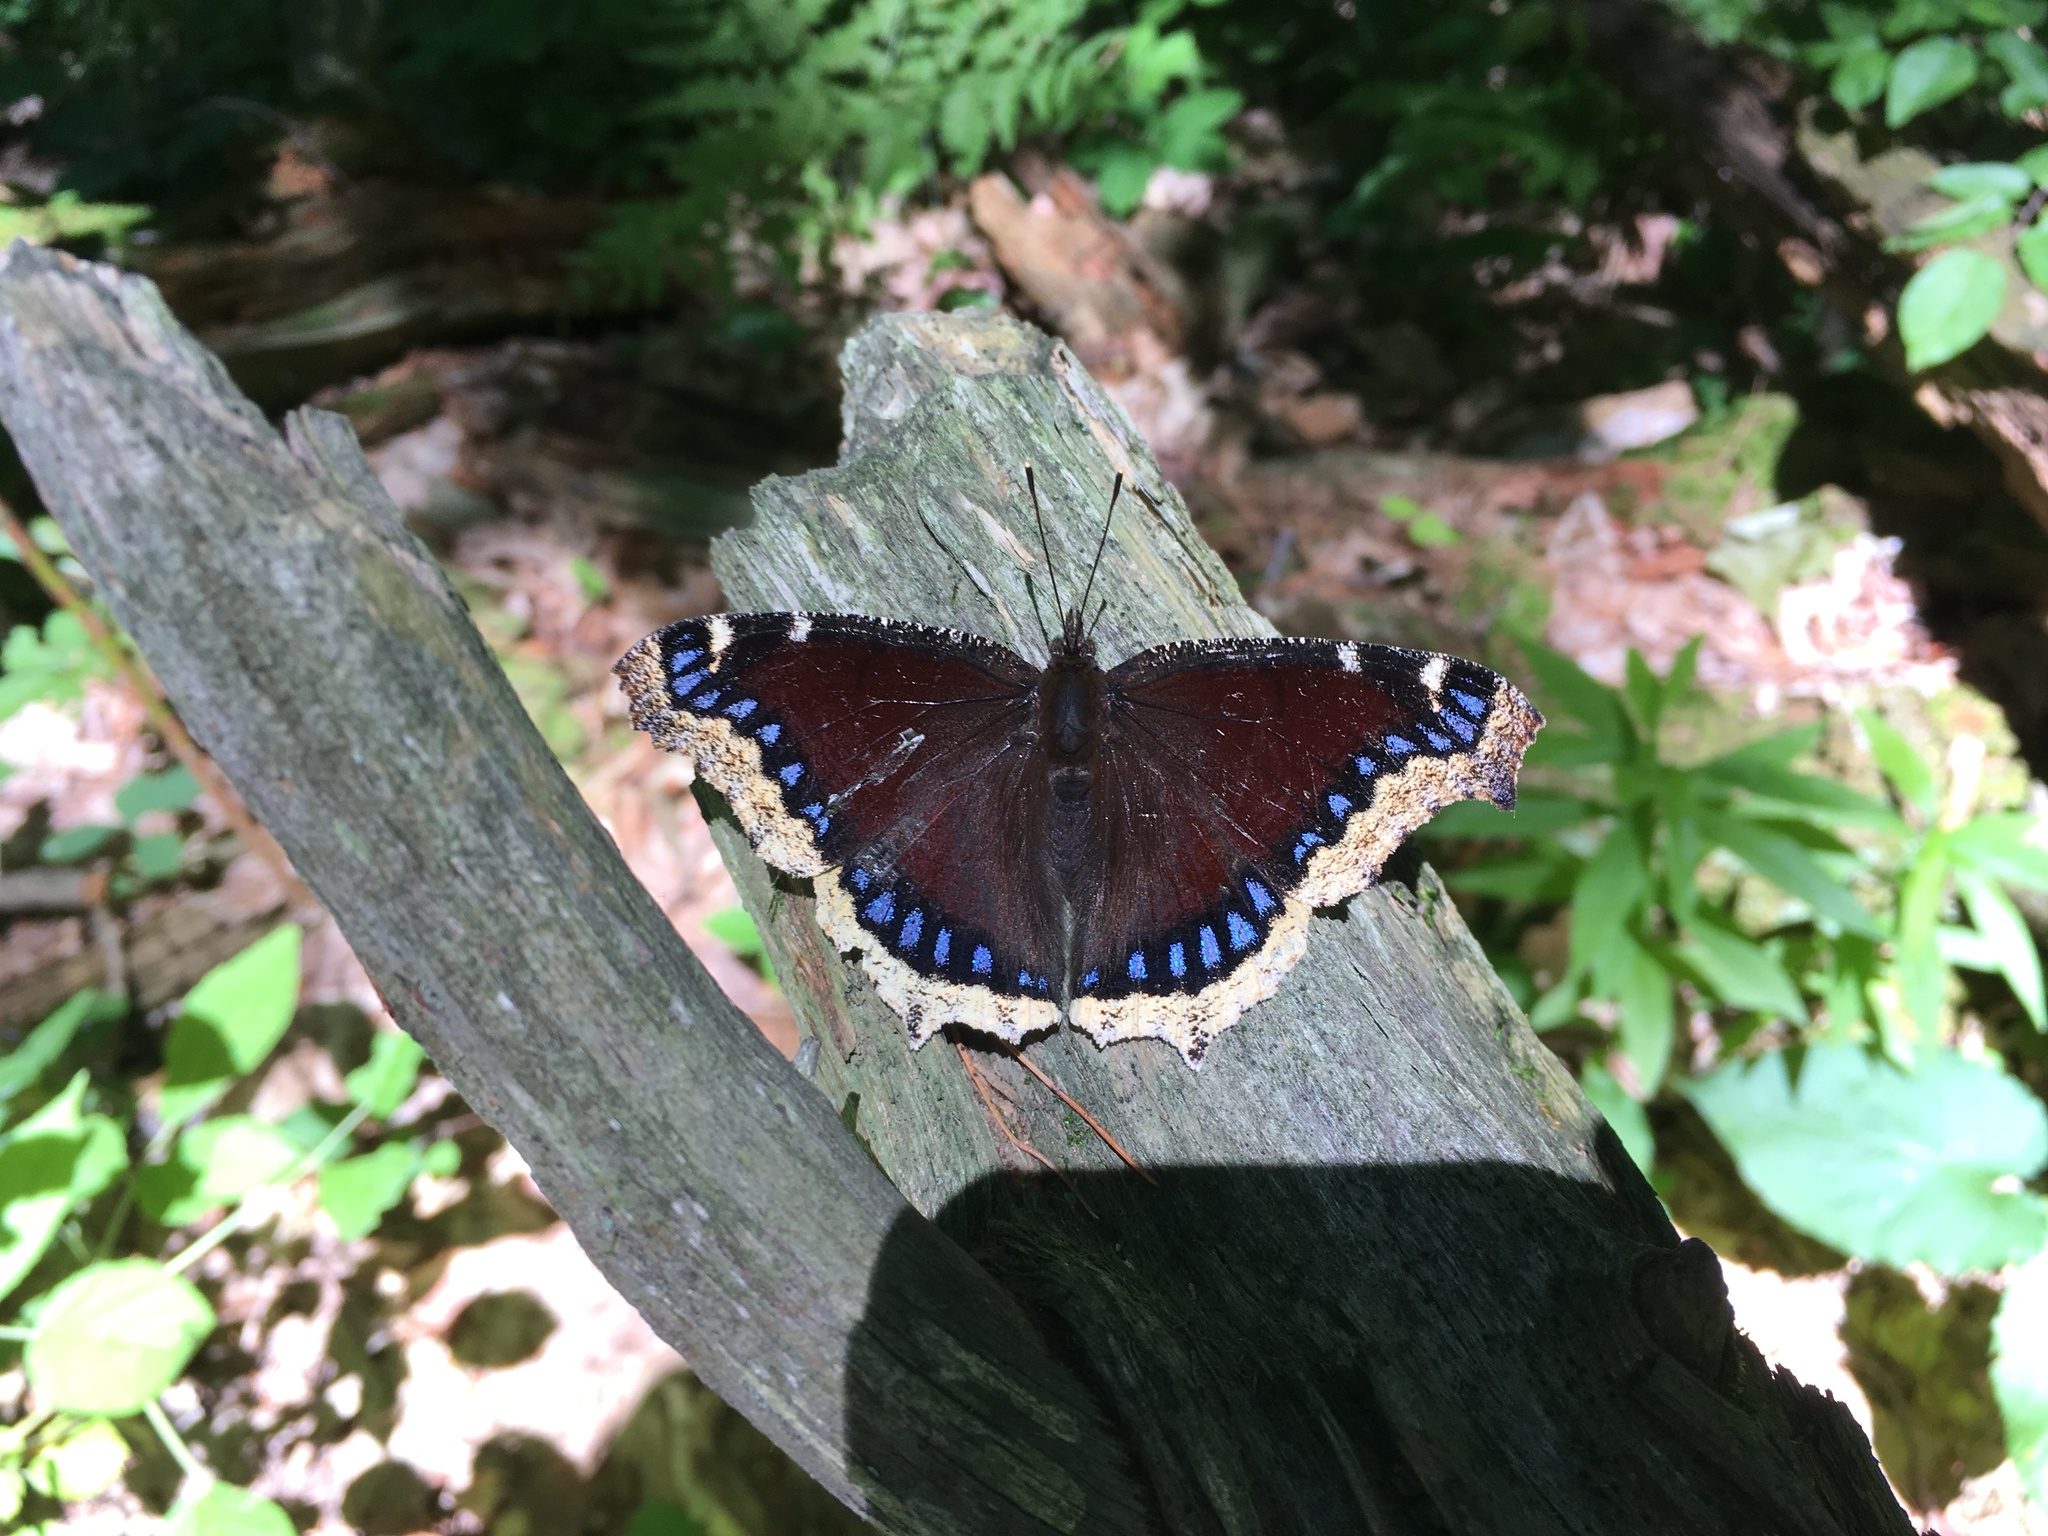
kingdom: Animalia
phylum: Arthropoda
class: Insecta
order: Lepidoptera
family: Nymphalidae
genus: Nymphalis
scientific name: Nymphalis antiopa
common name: Camberwell beauty
